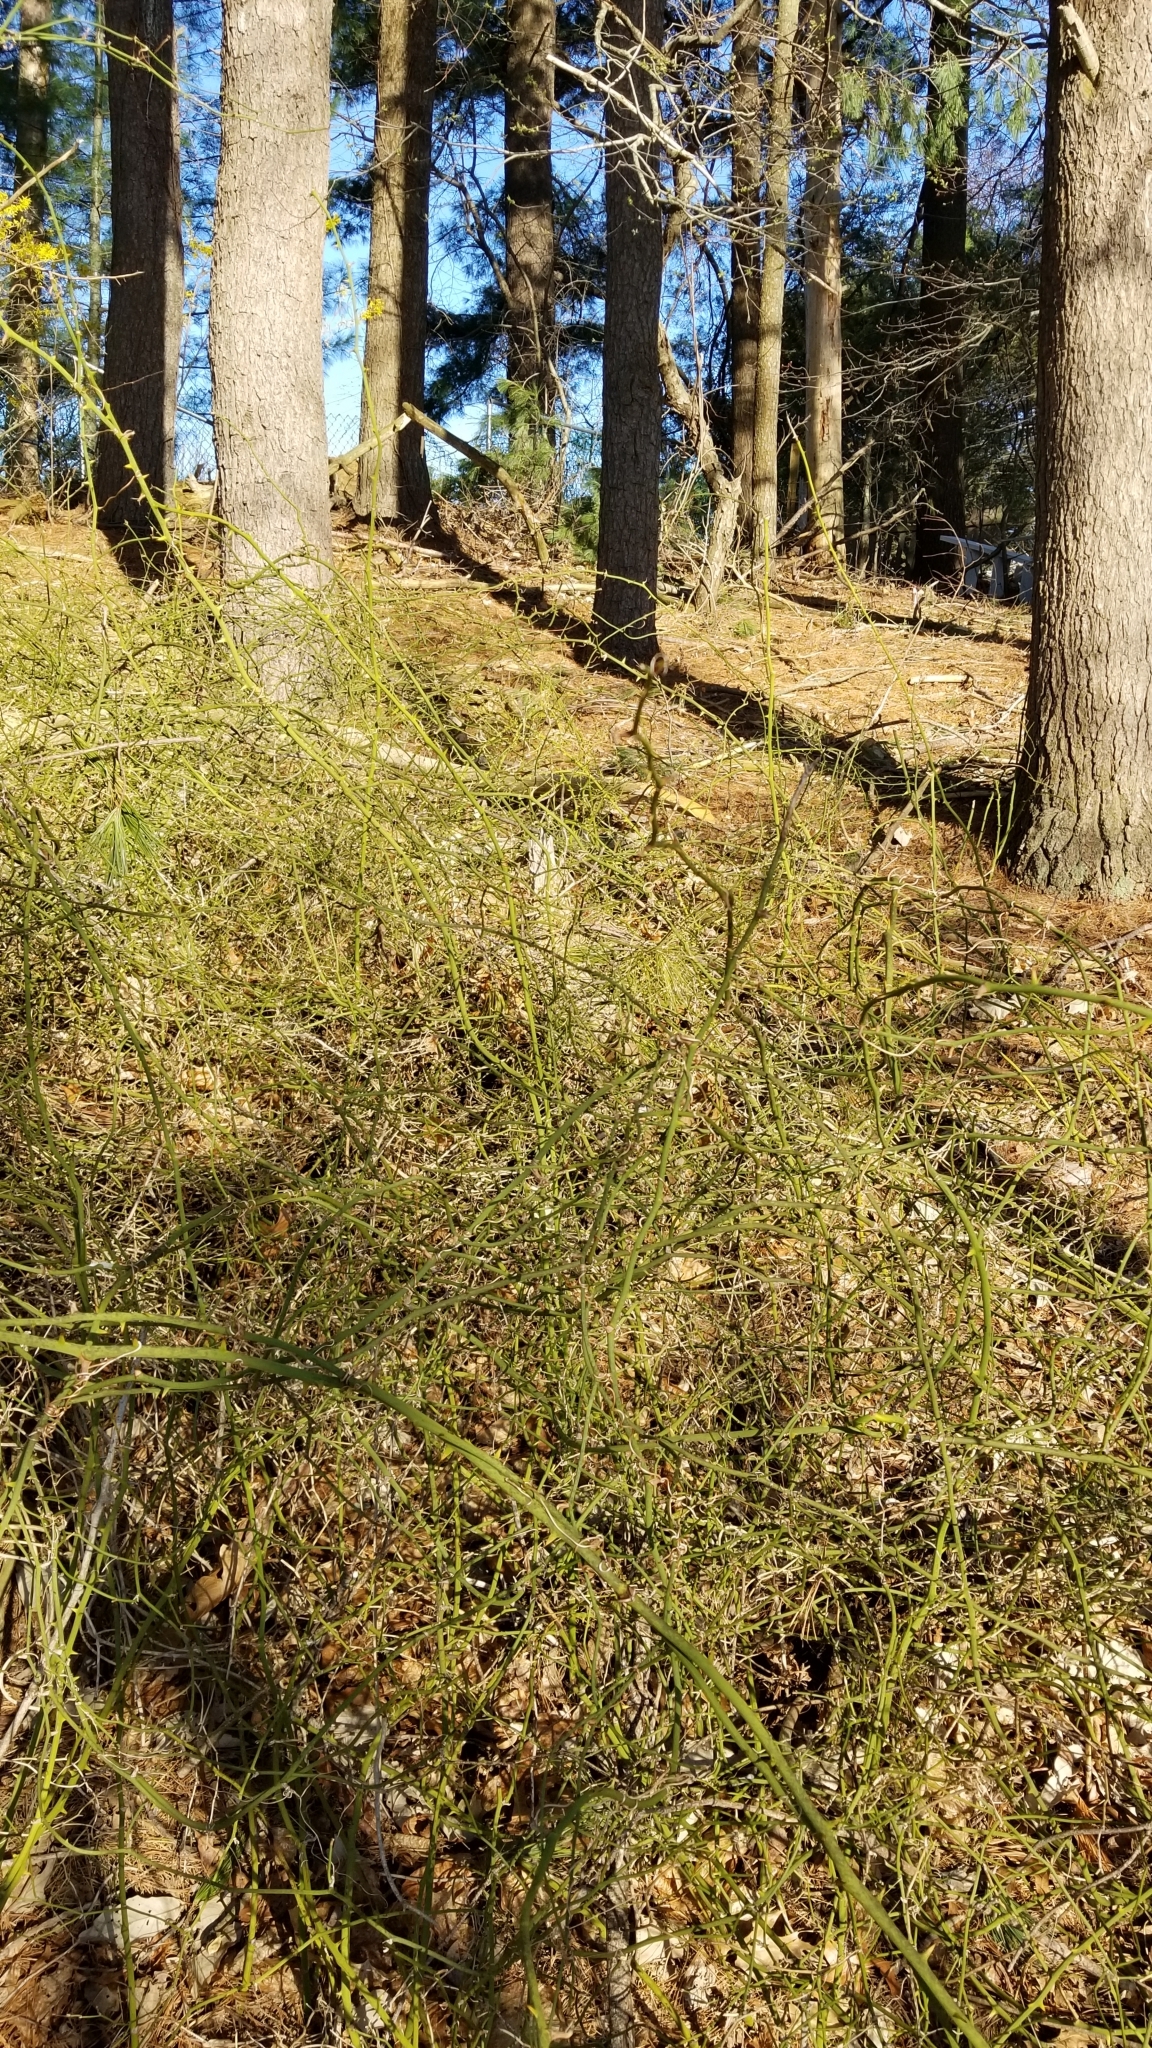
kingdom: Plantae
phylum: Tracheophyta
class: Liliopsida
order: Liliales
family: Smilacaceae
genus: Smilax
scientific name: Smilax rotundifolia
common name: Bullbriar
